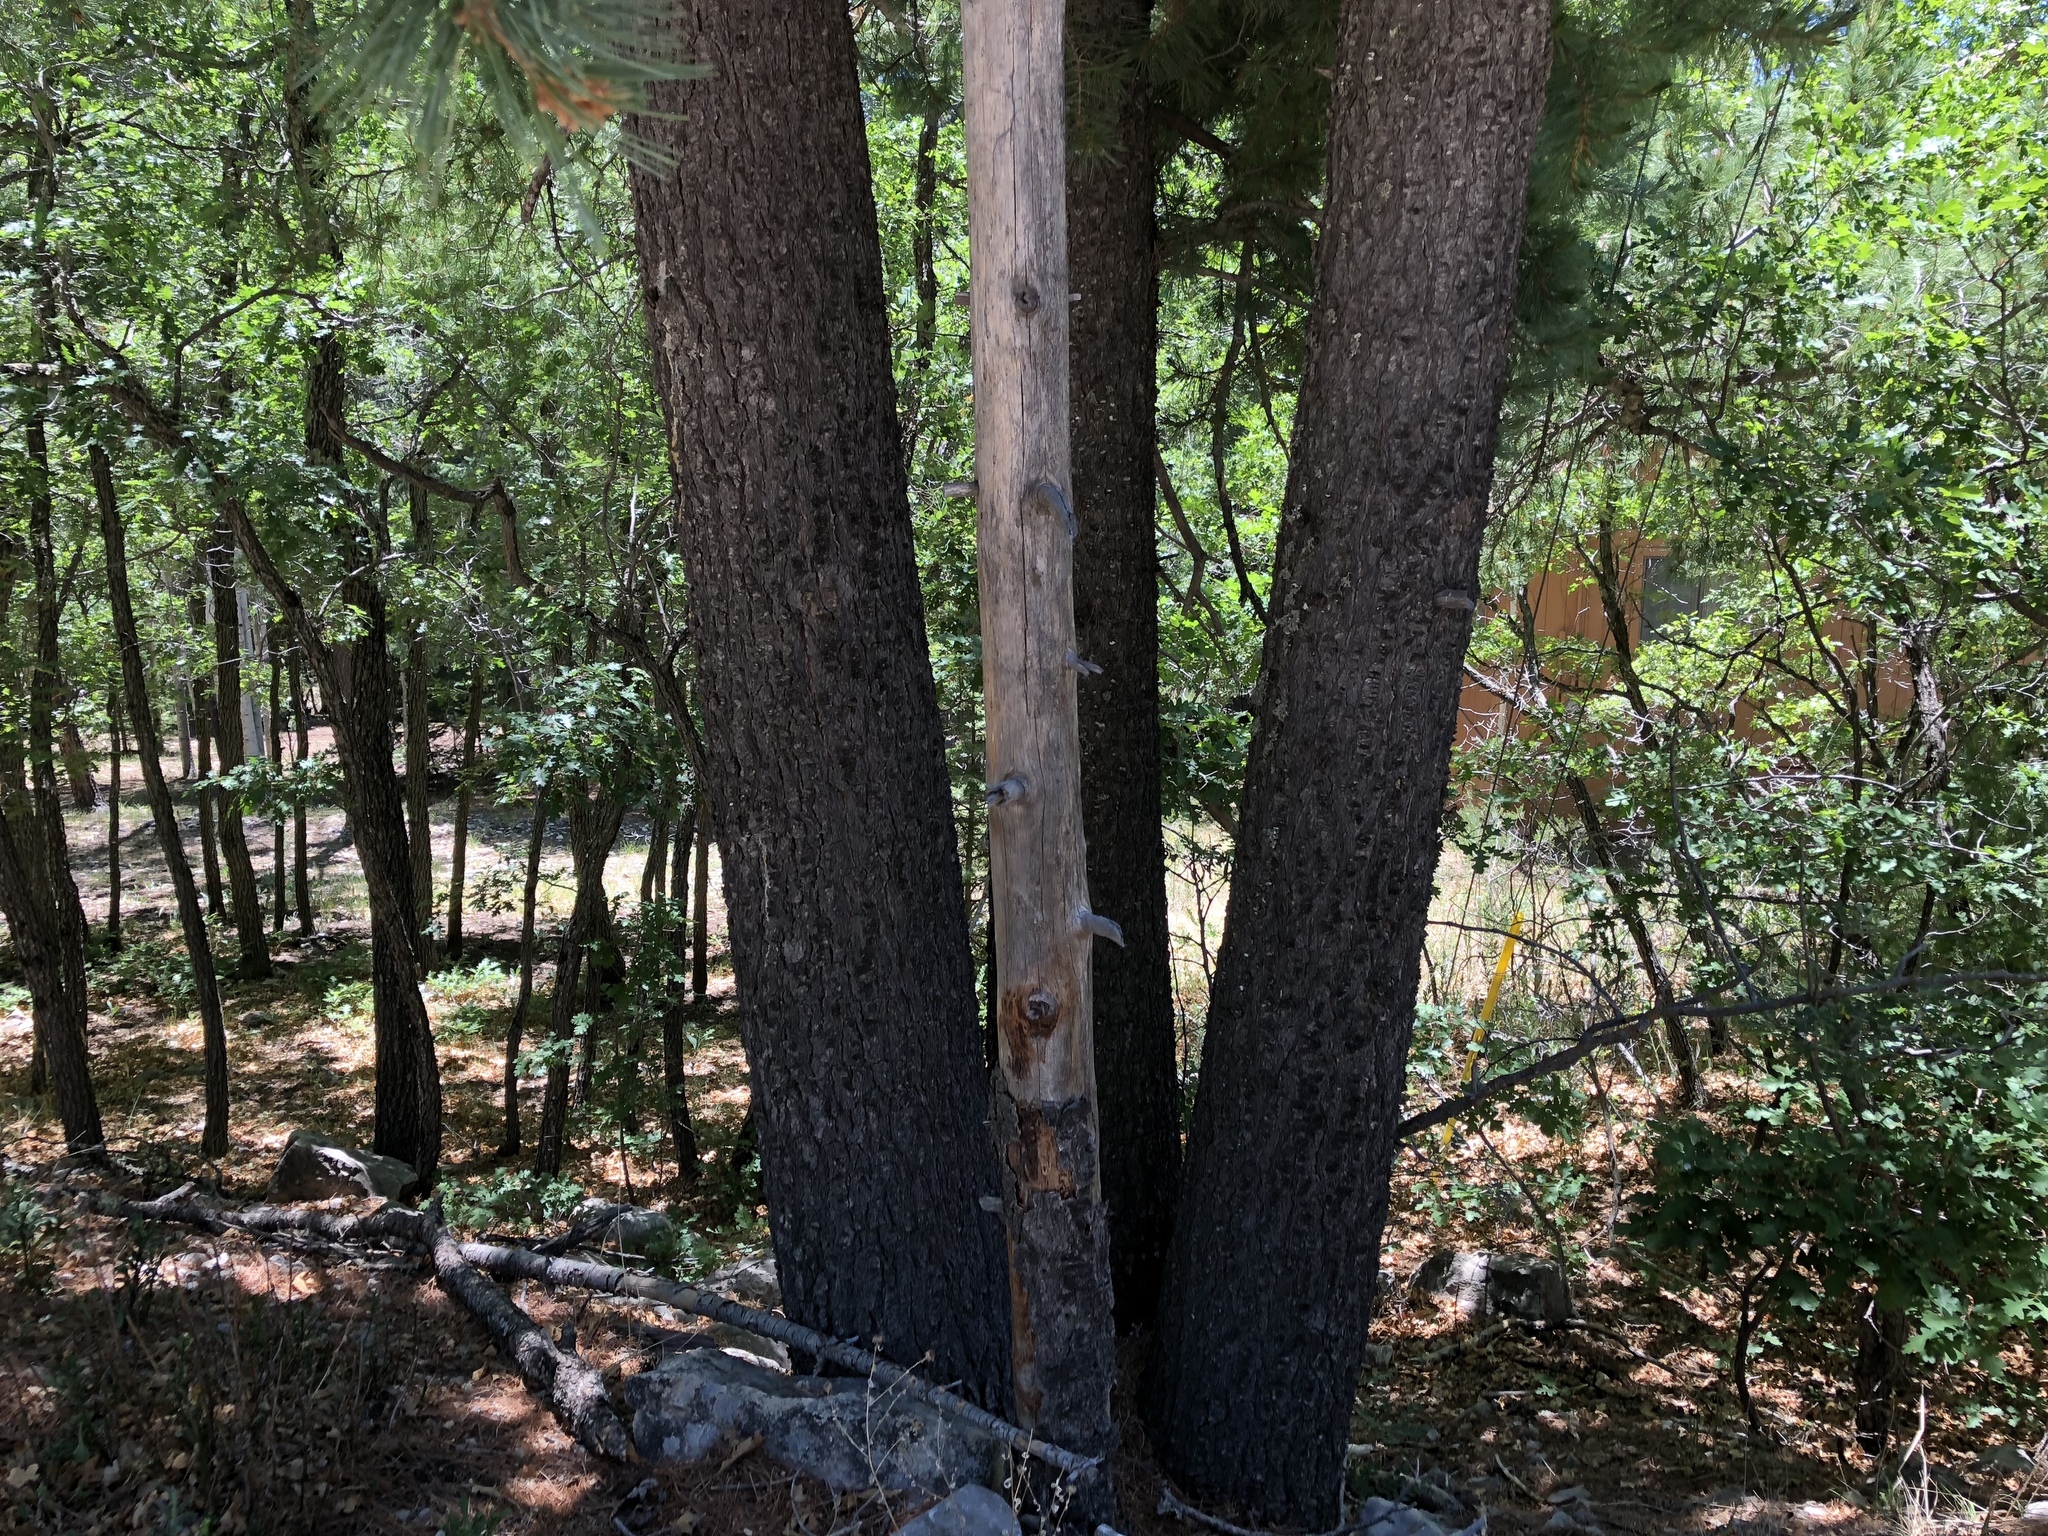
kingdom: Plantae
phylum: Tracheophyta
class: Pinopsida
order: Pinales
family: Pinaceae
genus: Pinus
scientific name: Pinus strobiformis
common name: Southwestern white pine
